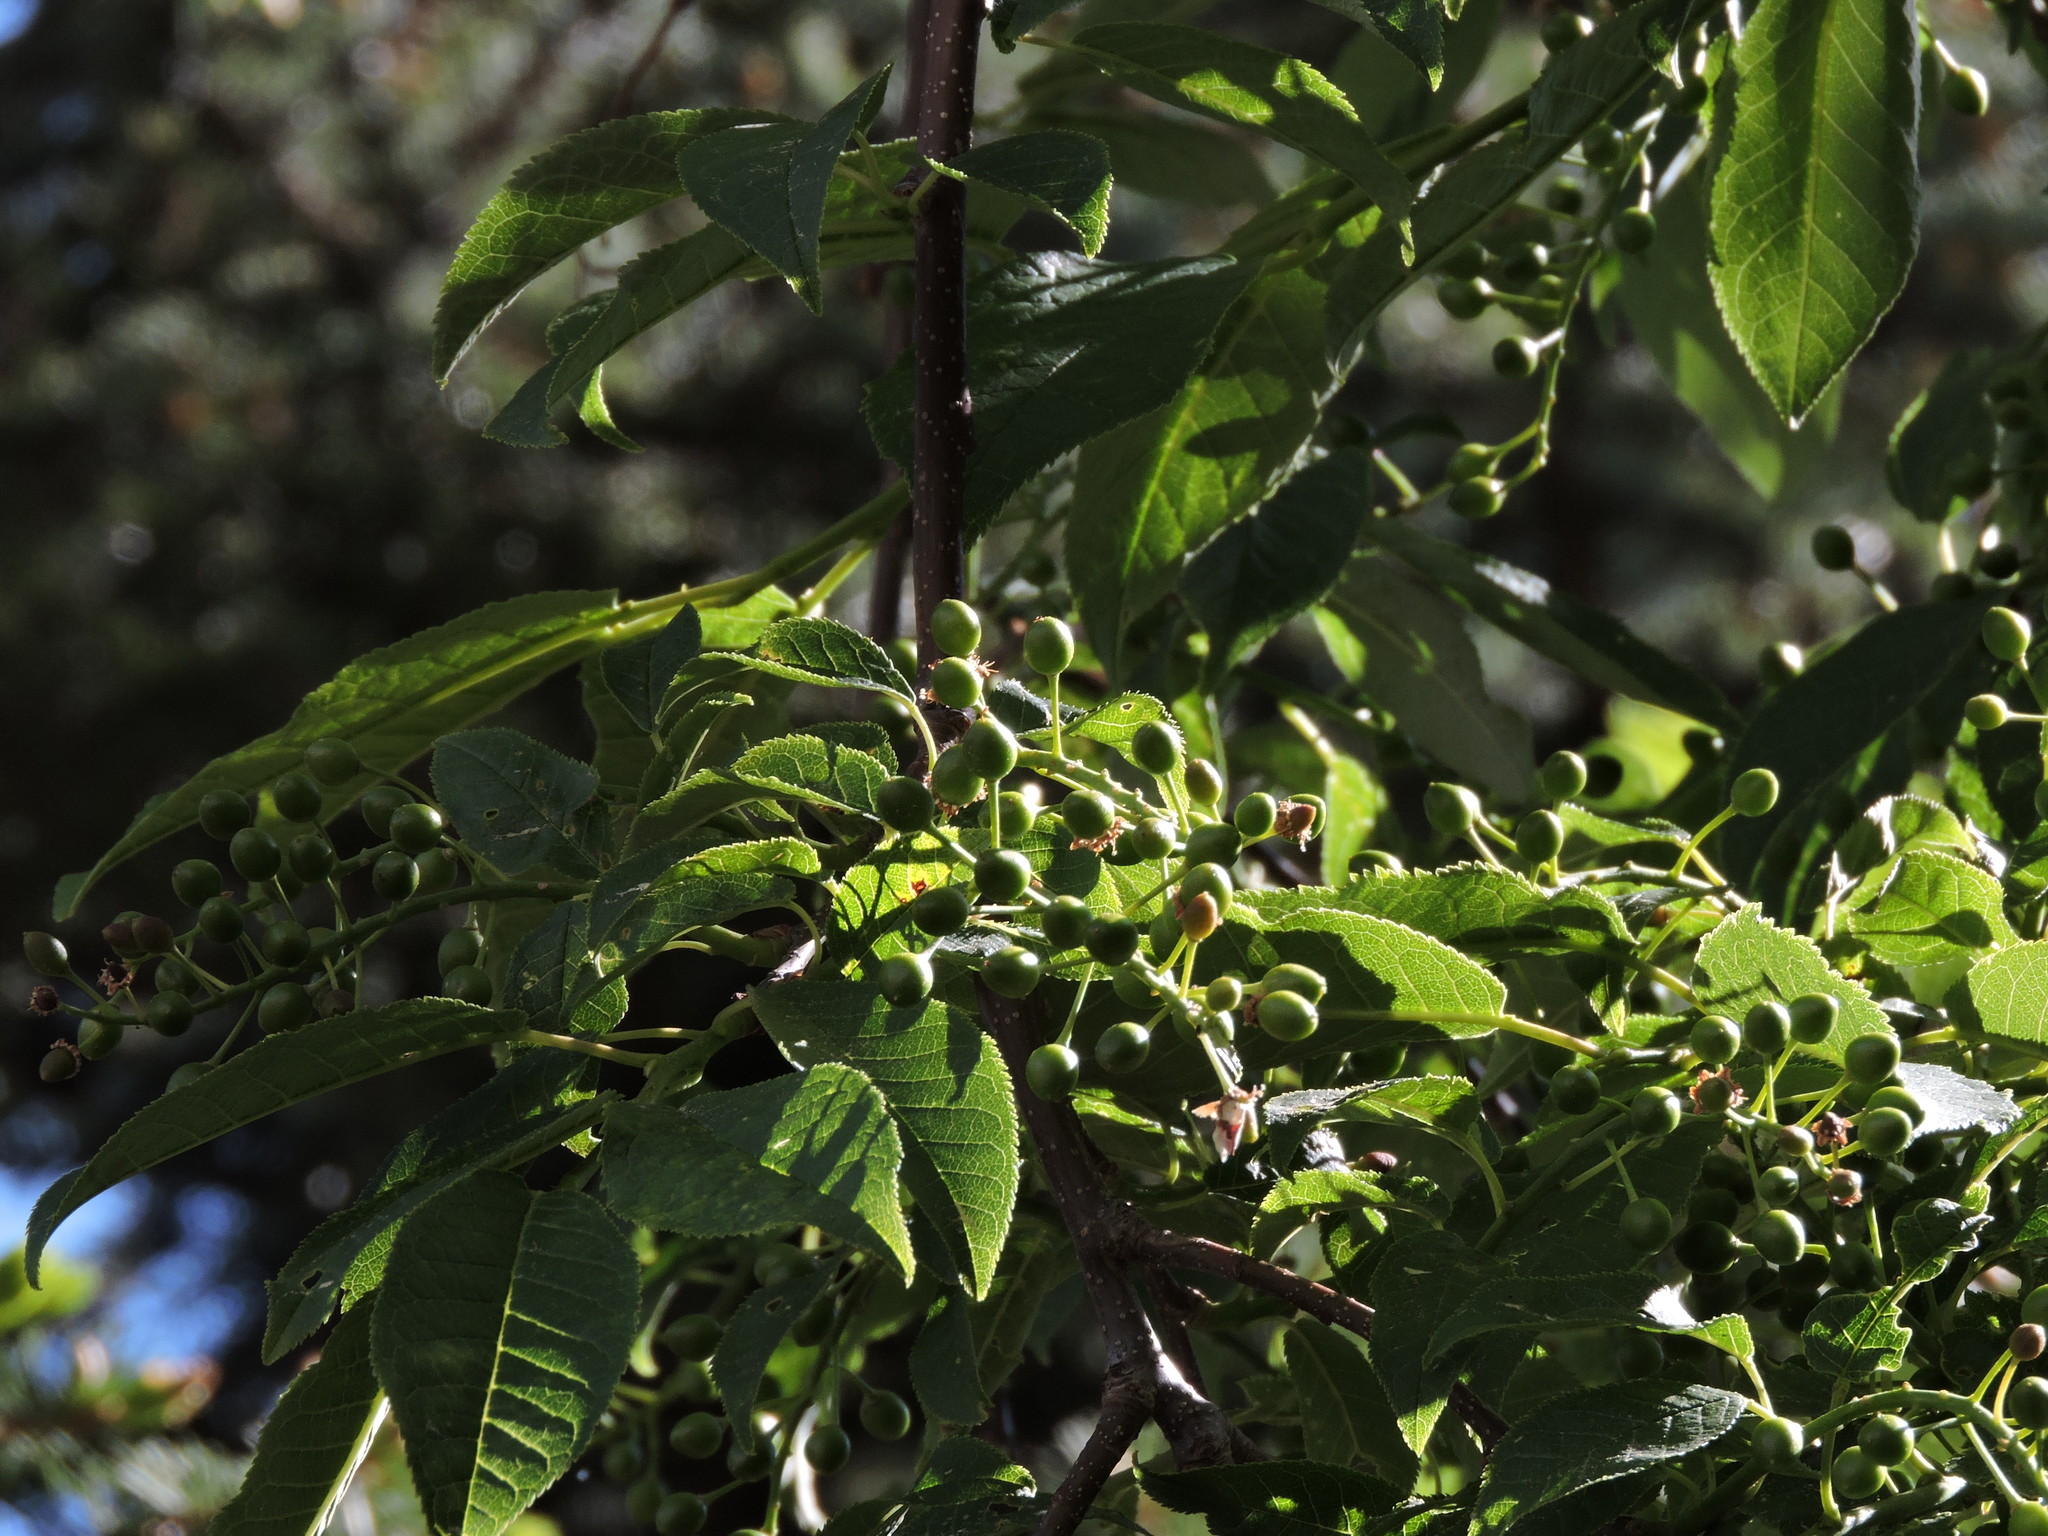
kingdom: Plantae
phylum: Tracheophyta
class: Magnoliopsida
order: Rosales
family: Rosaceae
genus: Prunus
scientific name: Prunus virginiana
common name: Chokecherry
